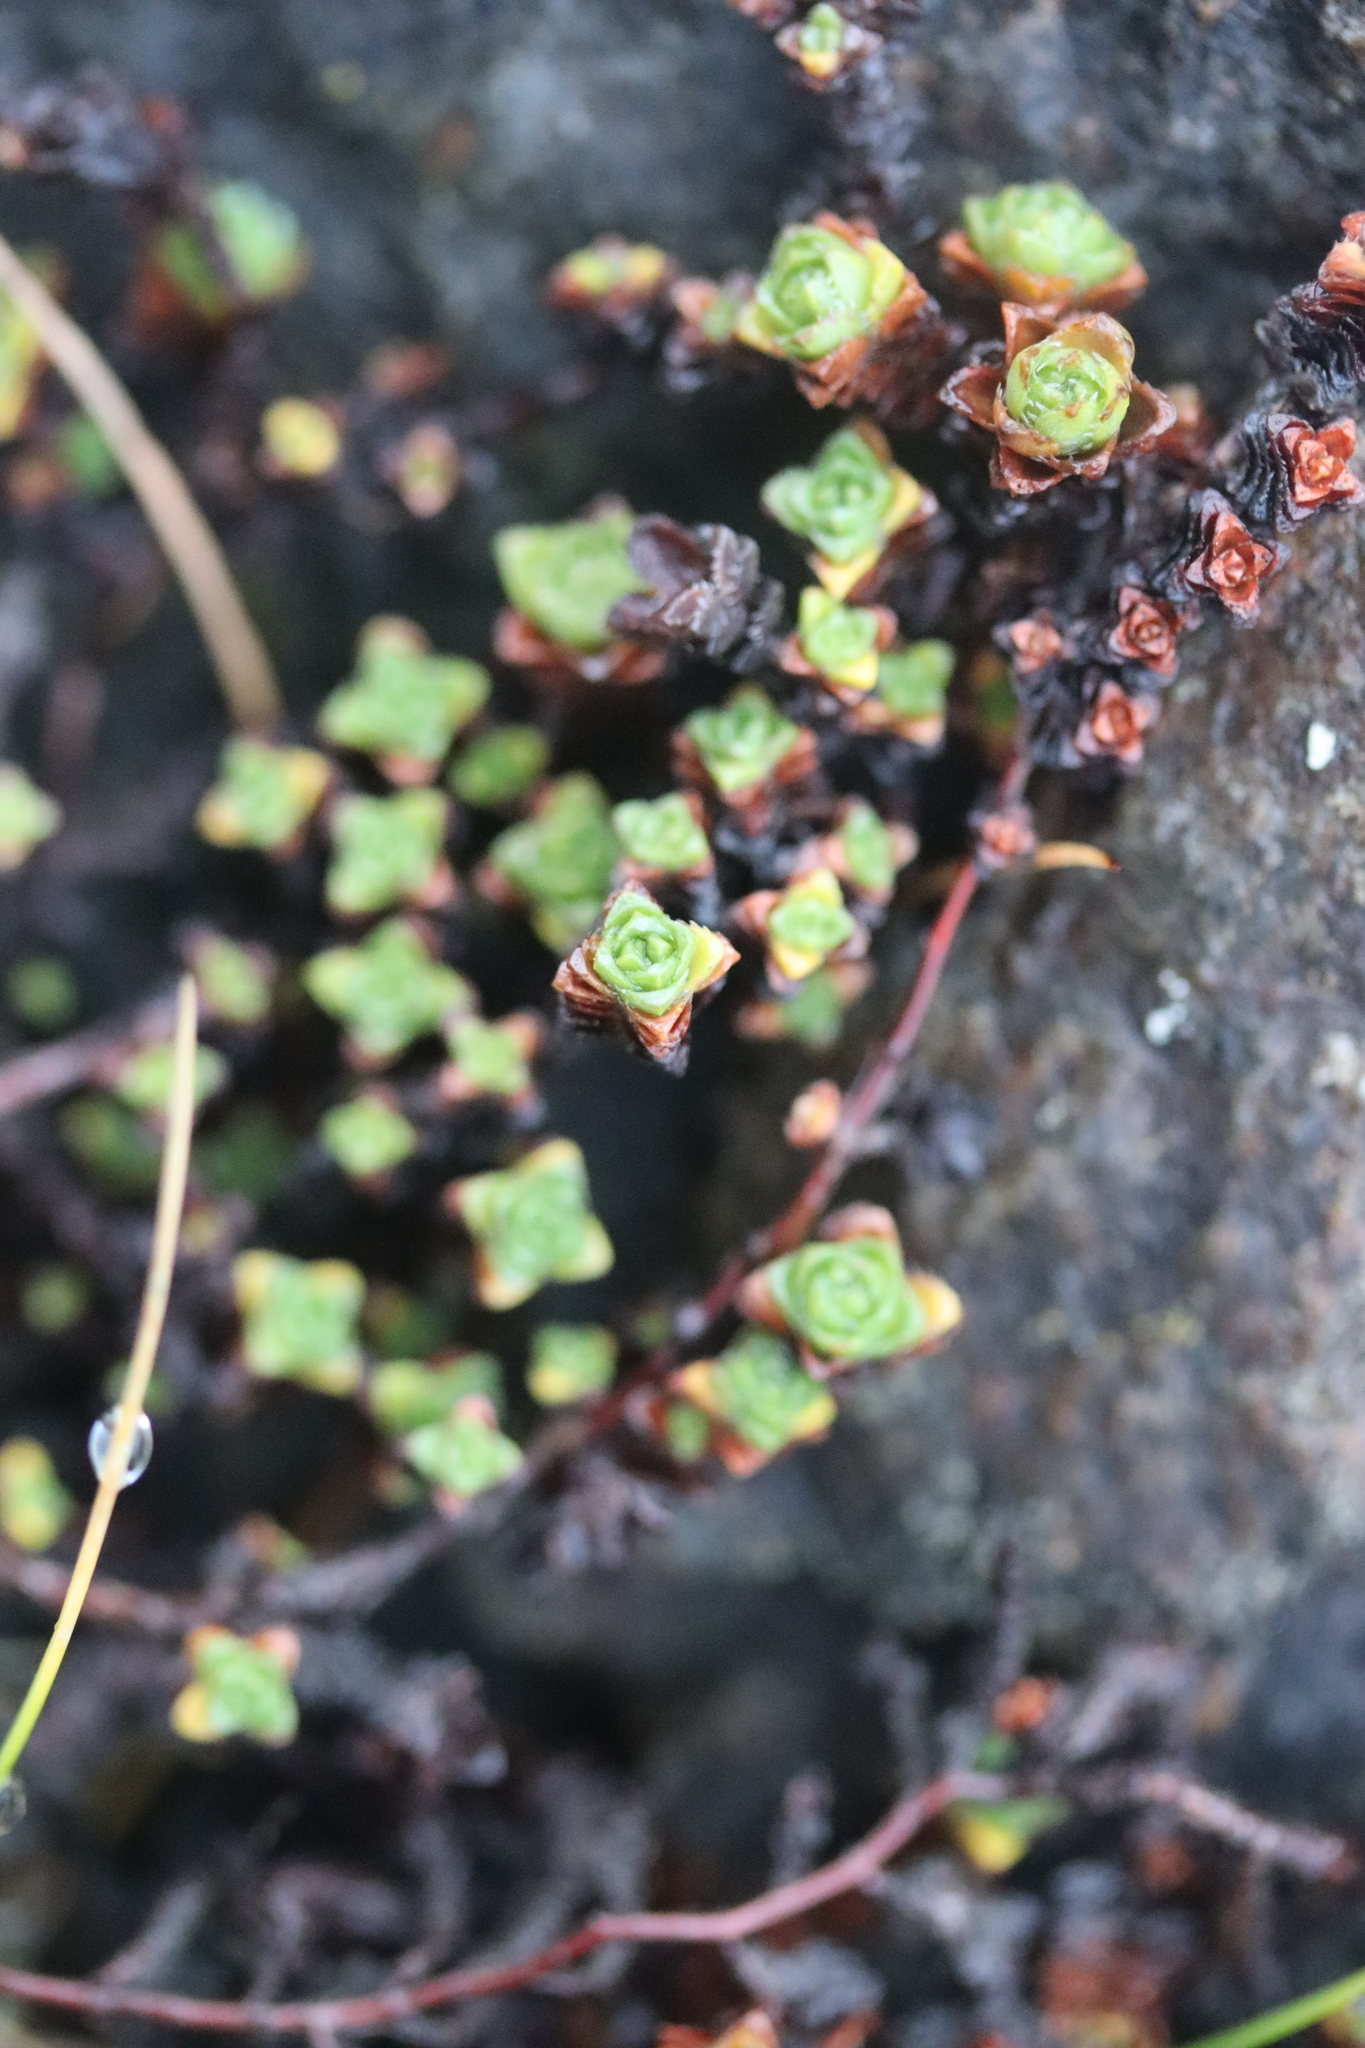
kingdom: Plantae
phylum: Tracheophyta
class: Magnoliopsida
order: Saxifragales
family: Saxifragaceae
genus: Saxifraga
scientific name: Saxifraga oppositifolia
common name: Purple saxifrage
